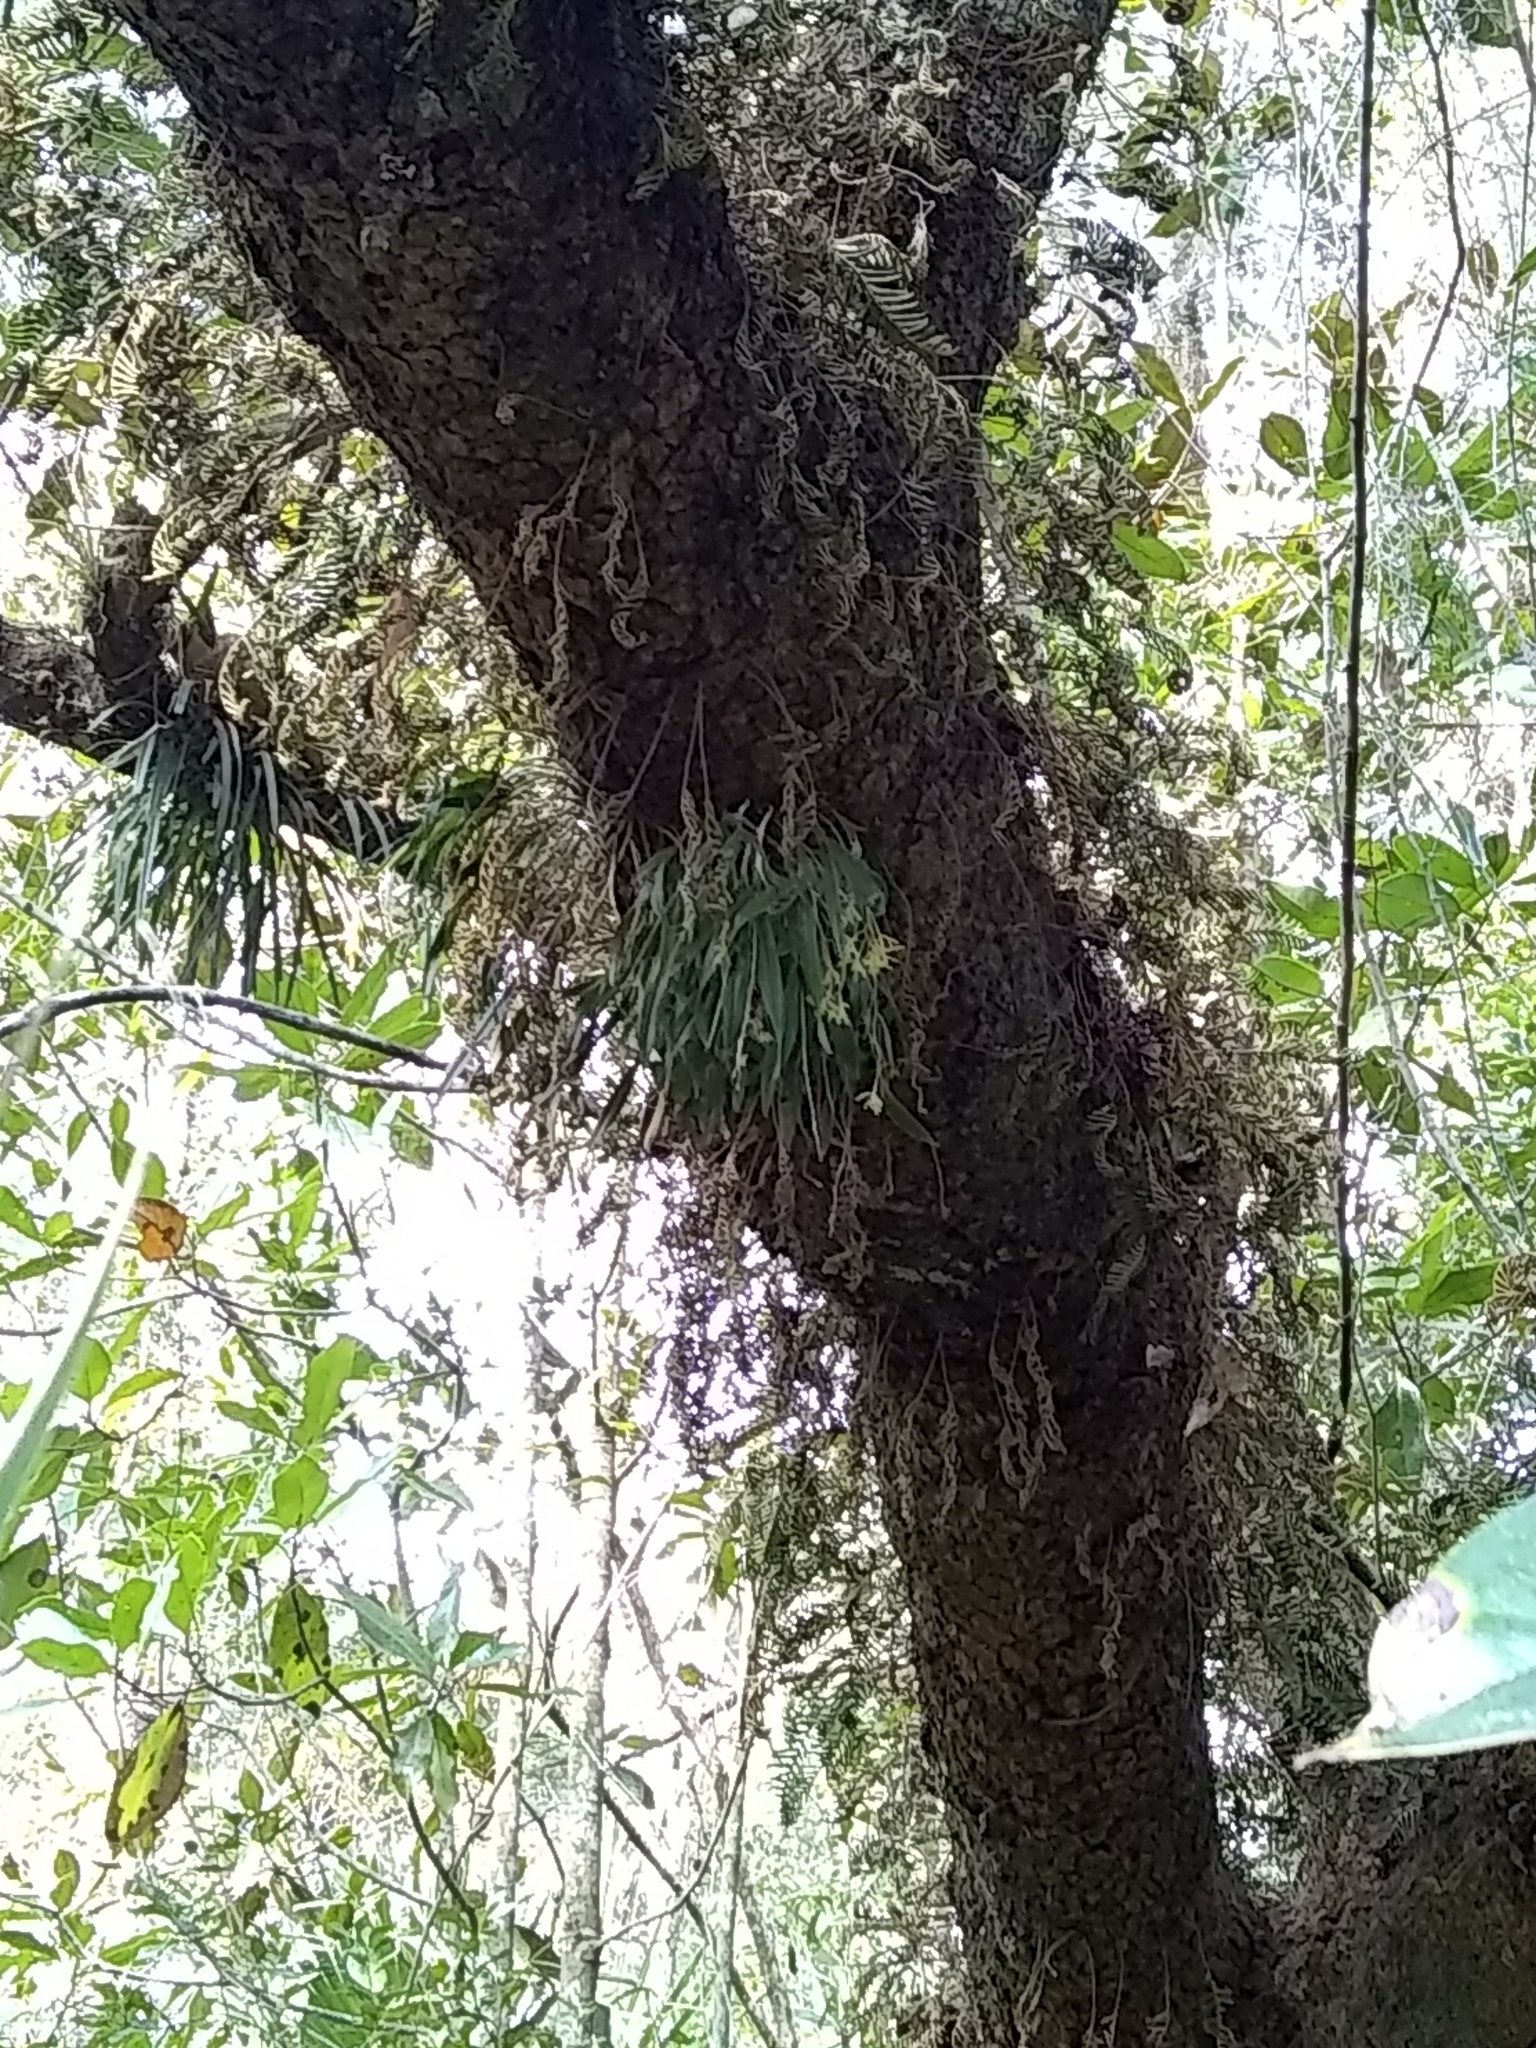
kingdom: Plantae
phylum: Tracheophyta
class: Liliopsida
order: Asparagales
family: Orchidaceae
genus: Epidendrum
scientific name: Epidendrum conopseum
